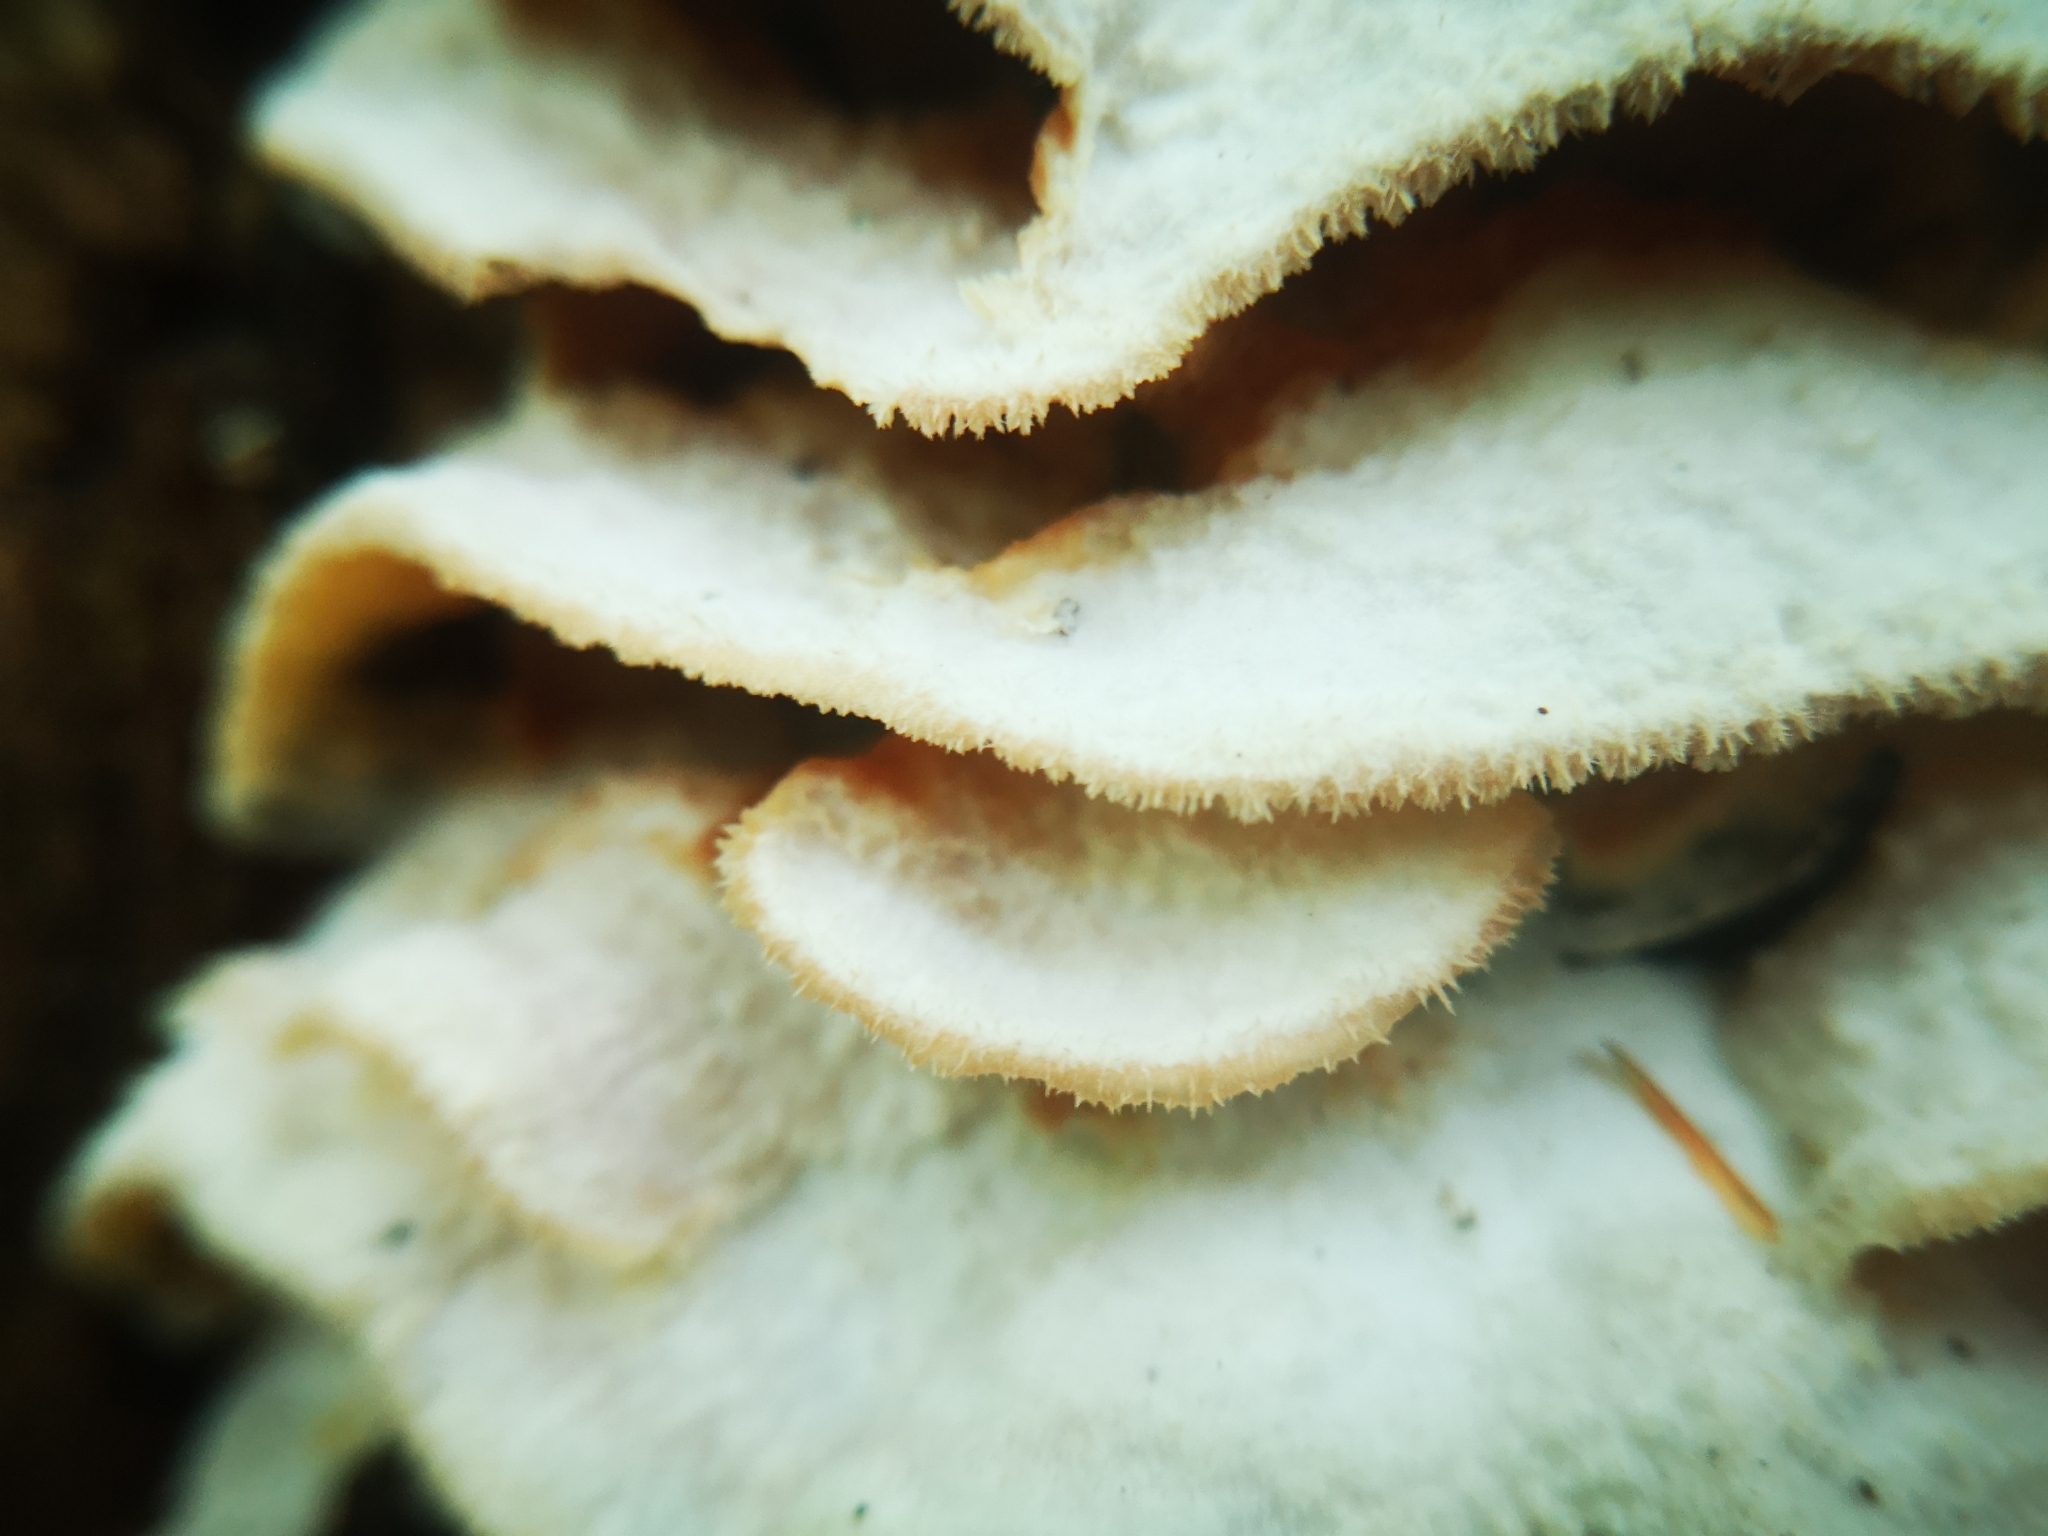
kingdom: Fungi
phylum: Basidiomycota
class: Agaricomycetes
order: Polyporales
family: Meruliaceae
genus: Phlebia
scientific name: Phlebia tremellosa
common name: Jelly rot
